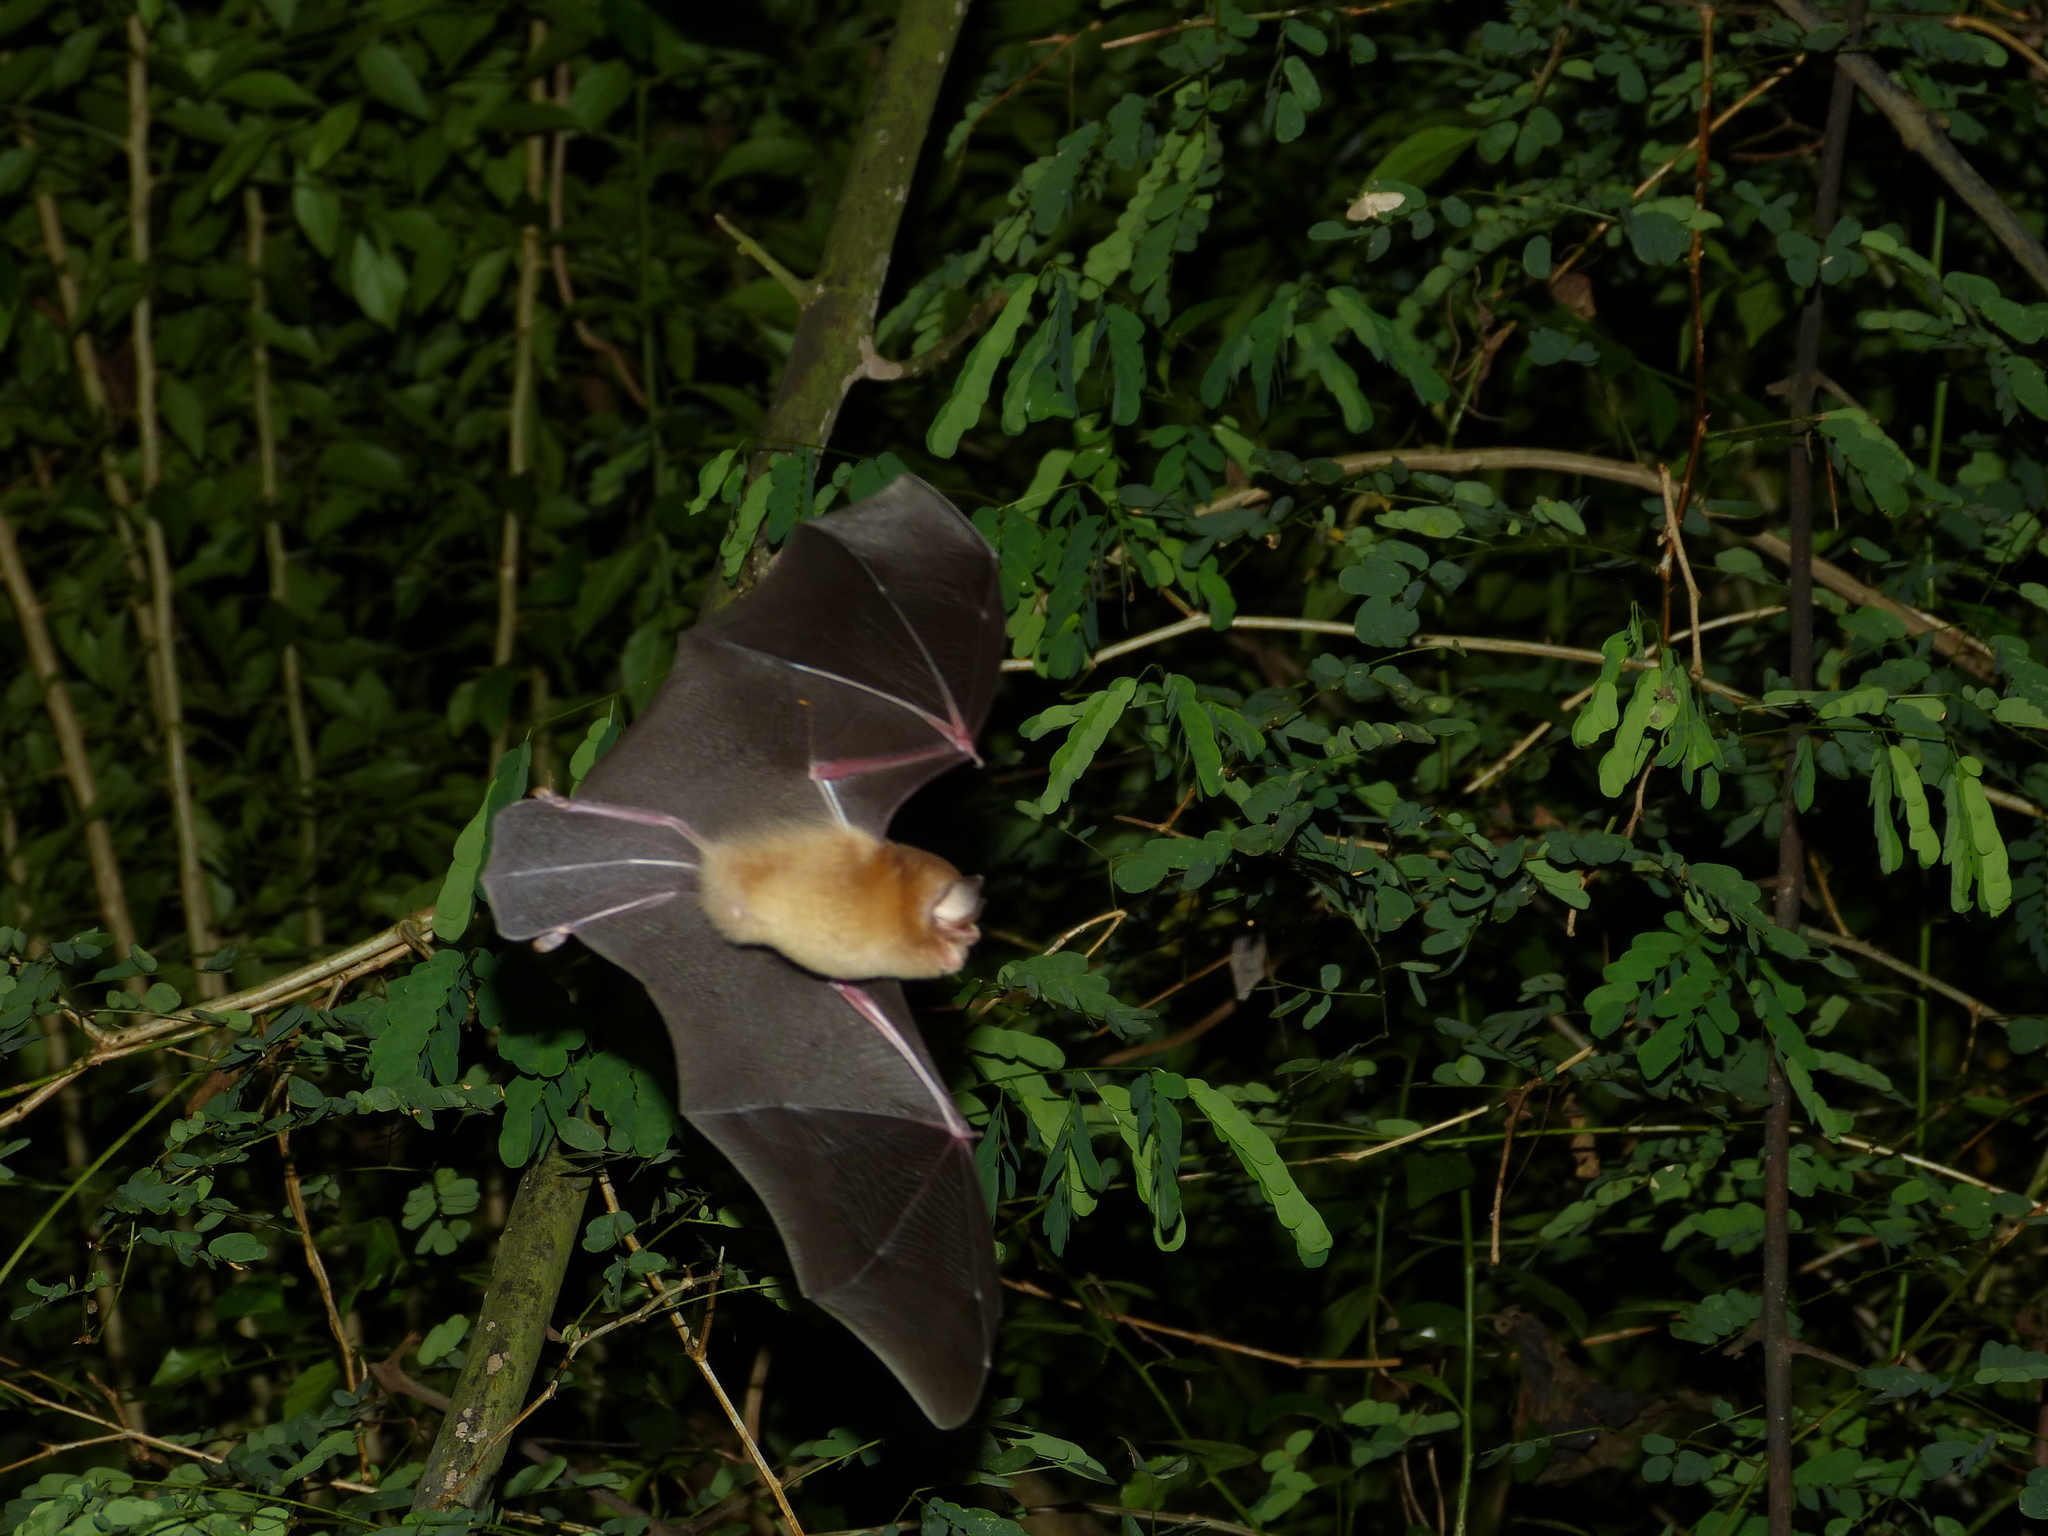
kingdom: Animalia
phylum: Chordata
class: Mammalia
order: Chiroptera
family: Natalidae
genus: Natalus
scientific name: Natalus mexicanus
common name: Mexican funnel-eared bat
